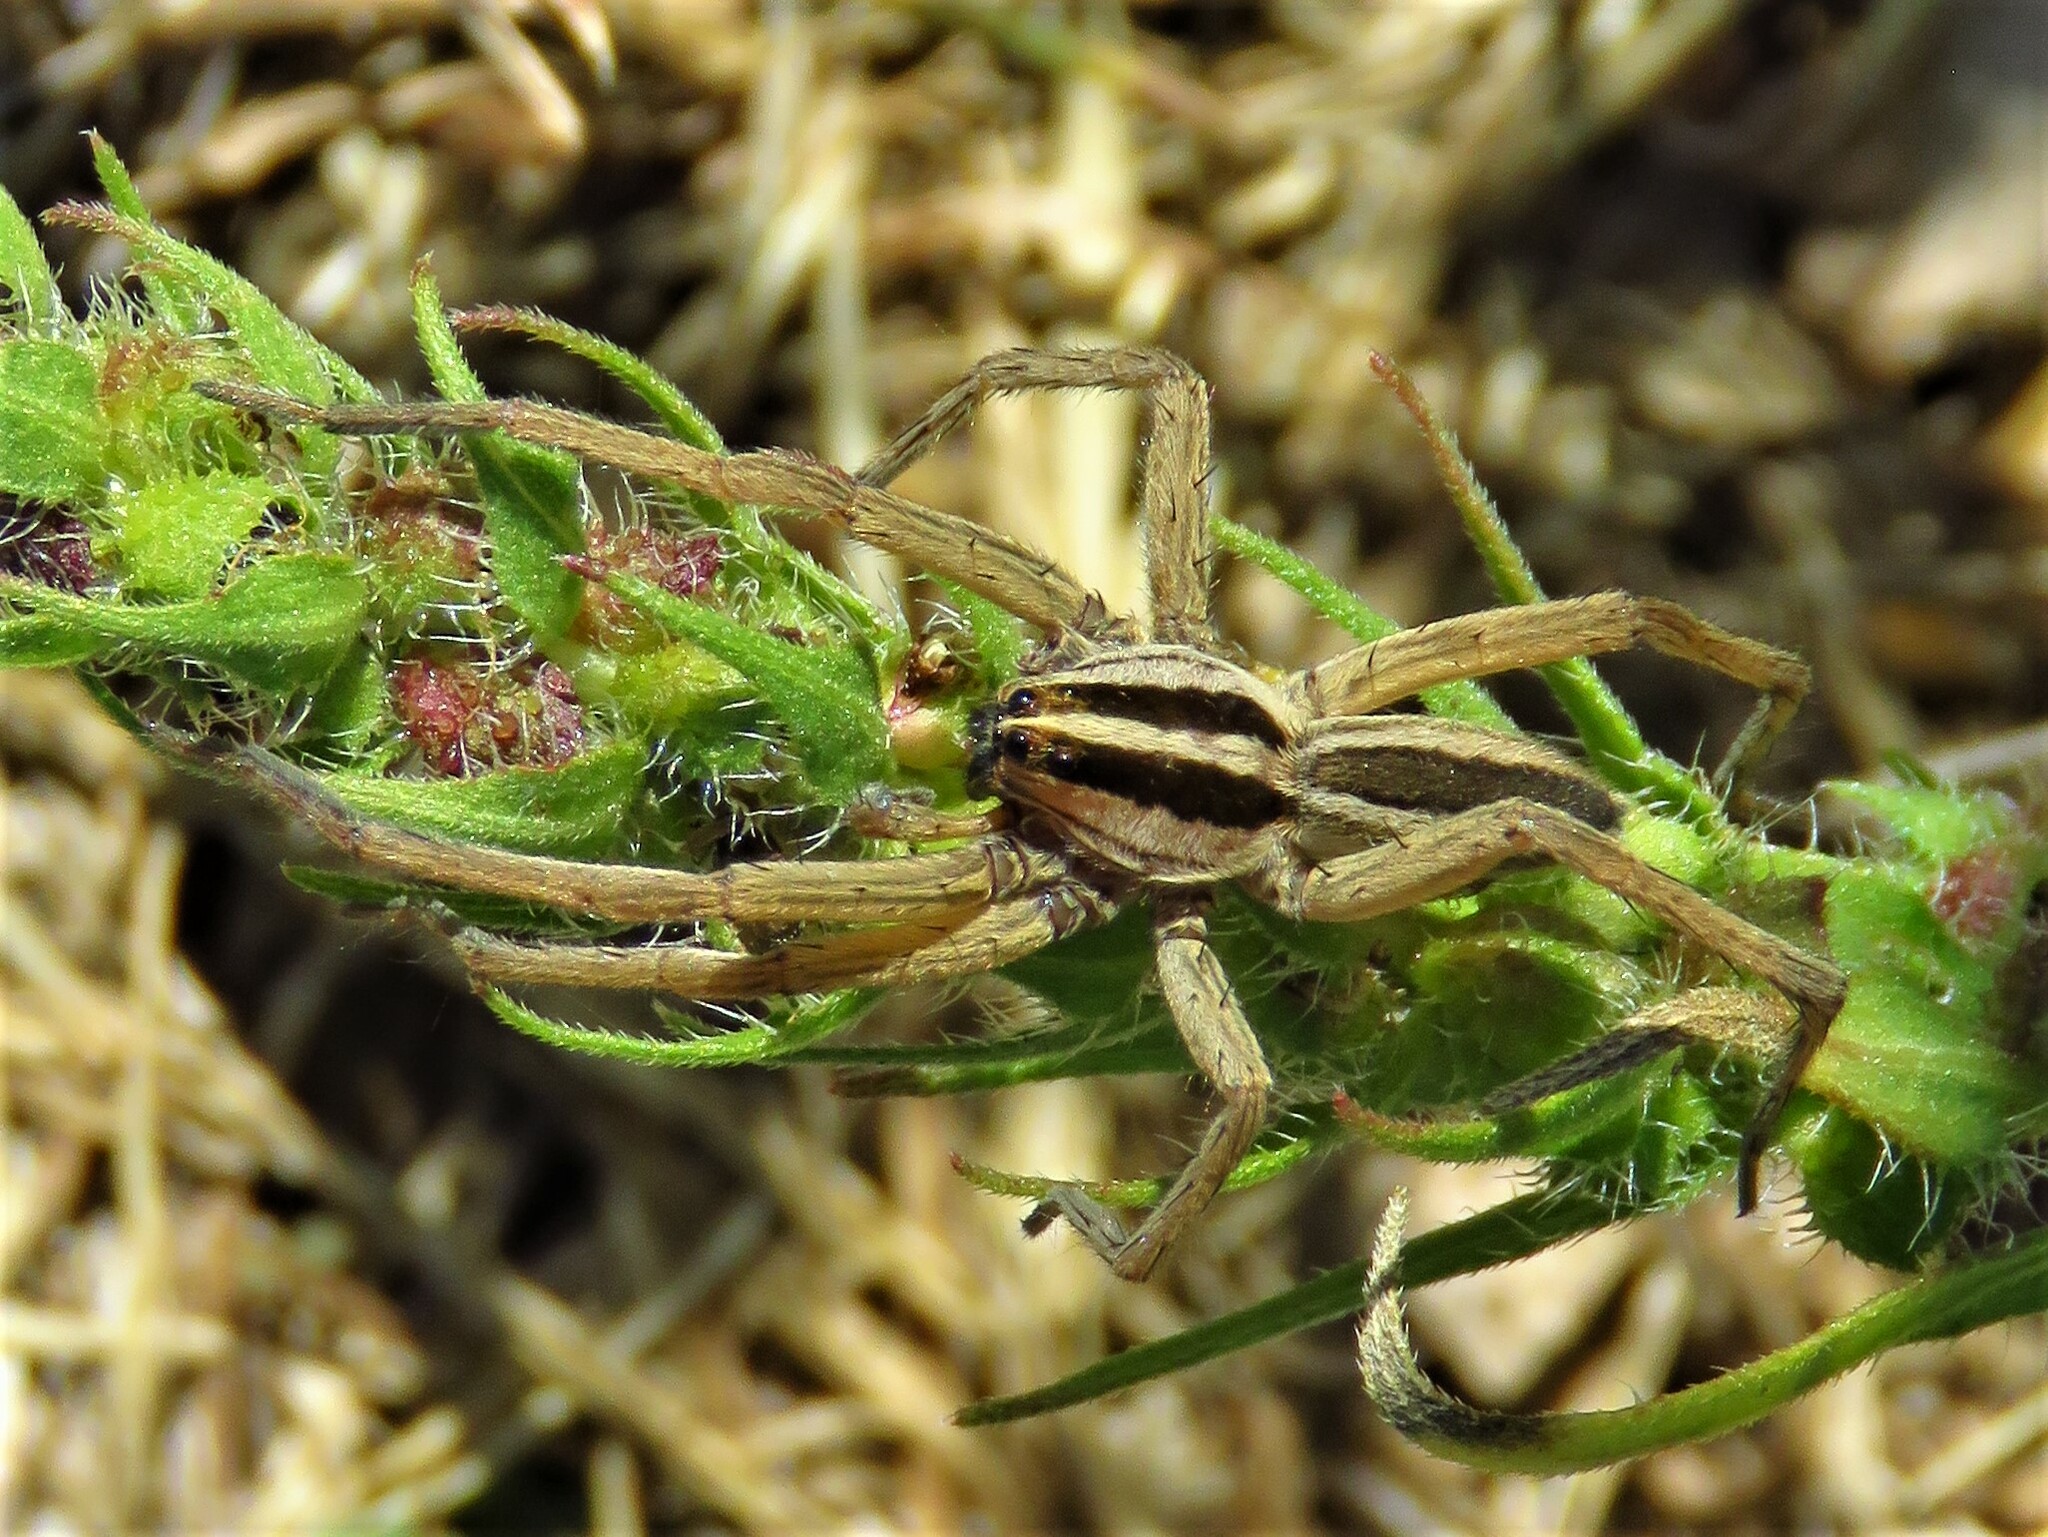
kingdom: Animalia
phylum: Arthropoda
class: Arachnida
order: Araneae
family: Lycosidae
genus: Rabidosa
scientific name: Rabidosa punctulata
